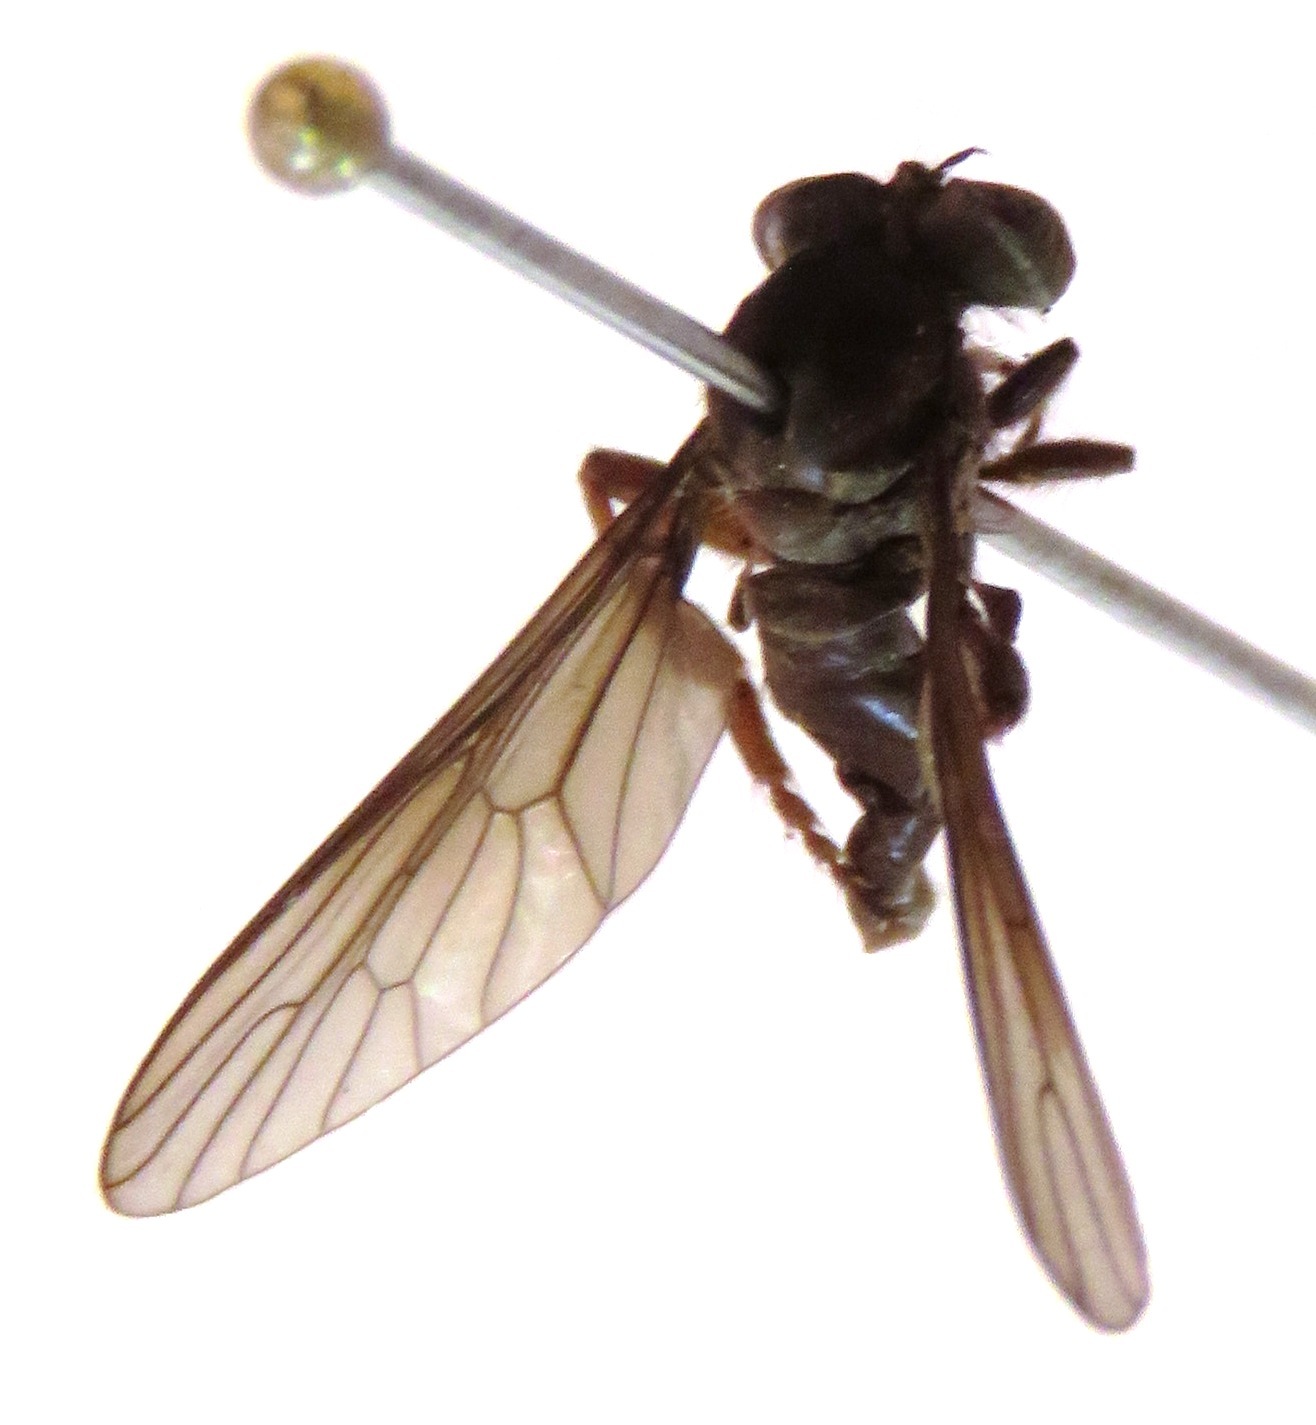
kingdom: Animalia
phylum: Arthropoda
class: Insecta
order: Diptera
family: Asilidae
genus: Holcocephala
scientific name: Holcocephala
